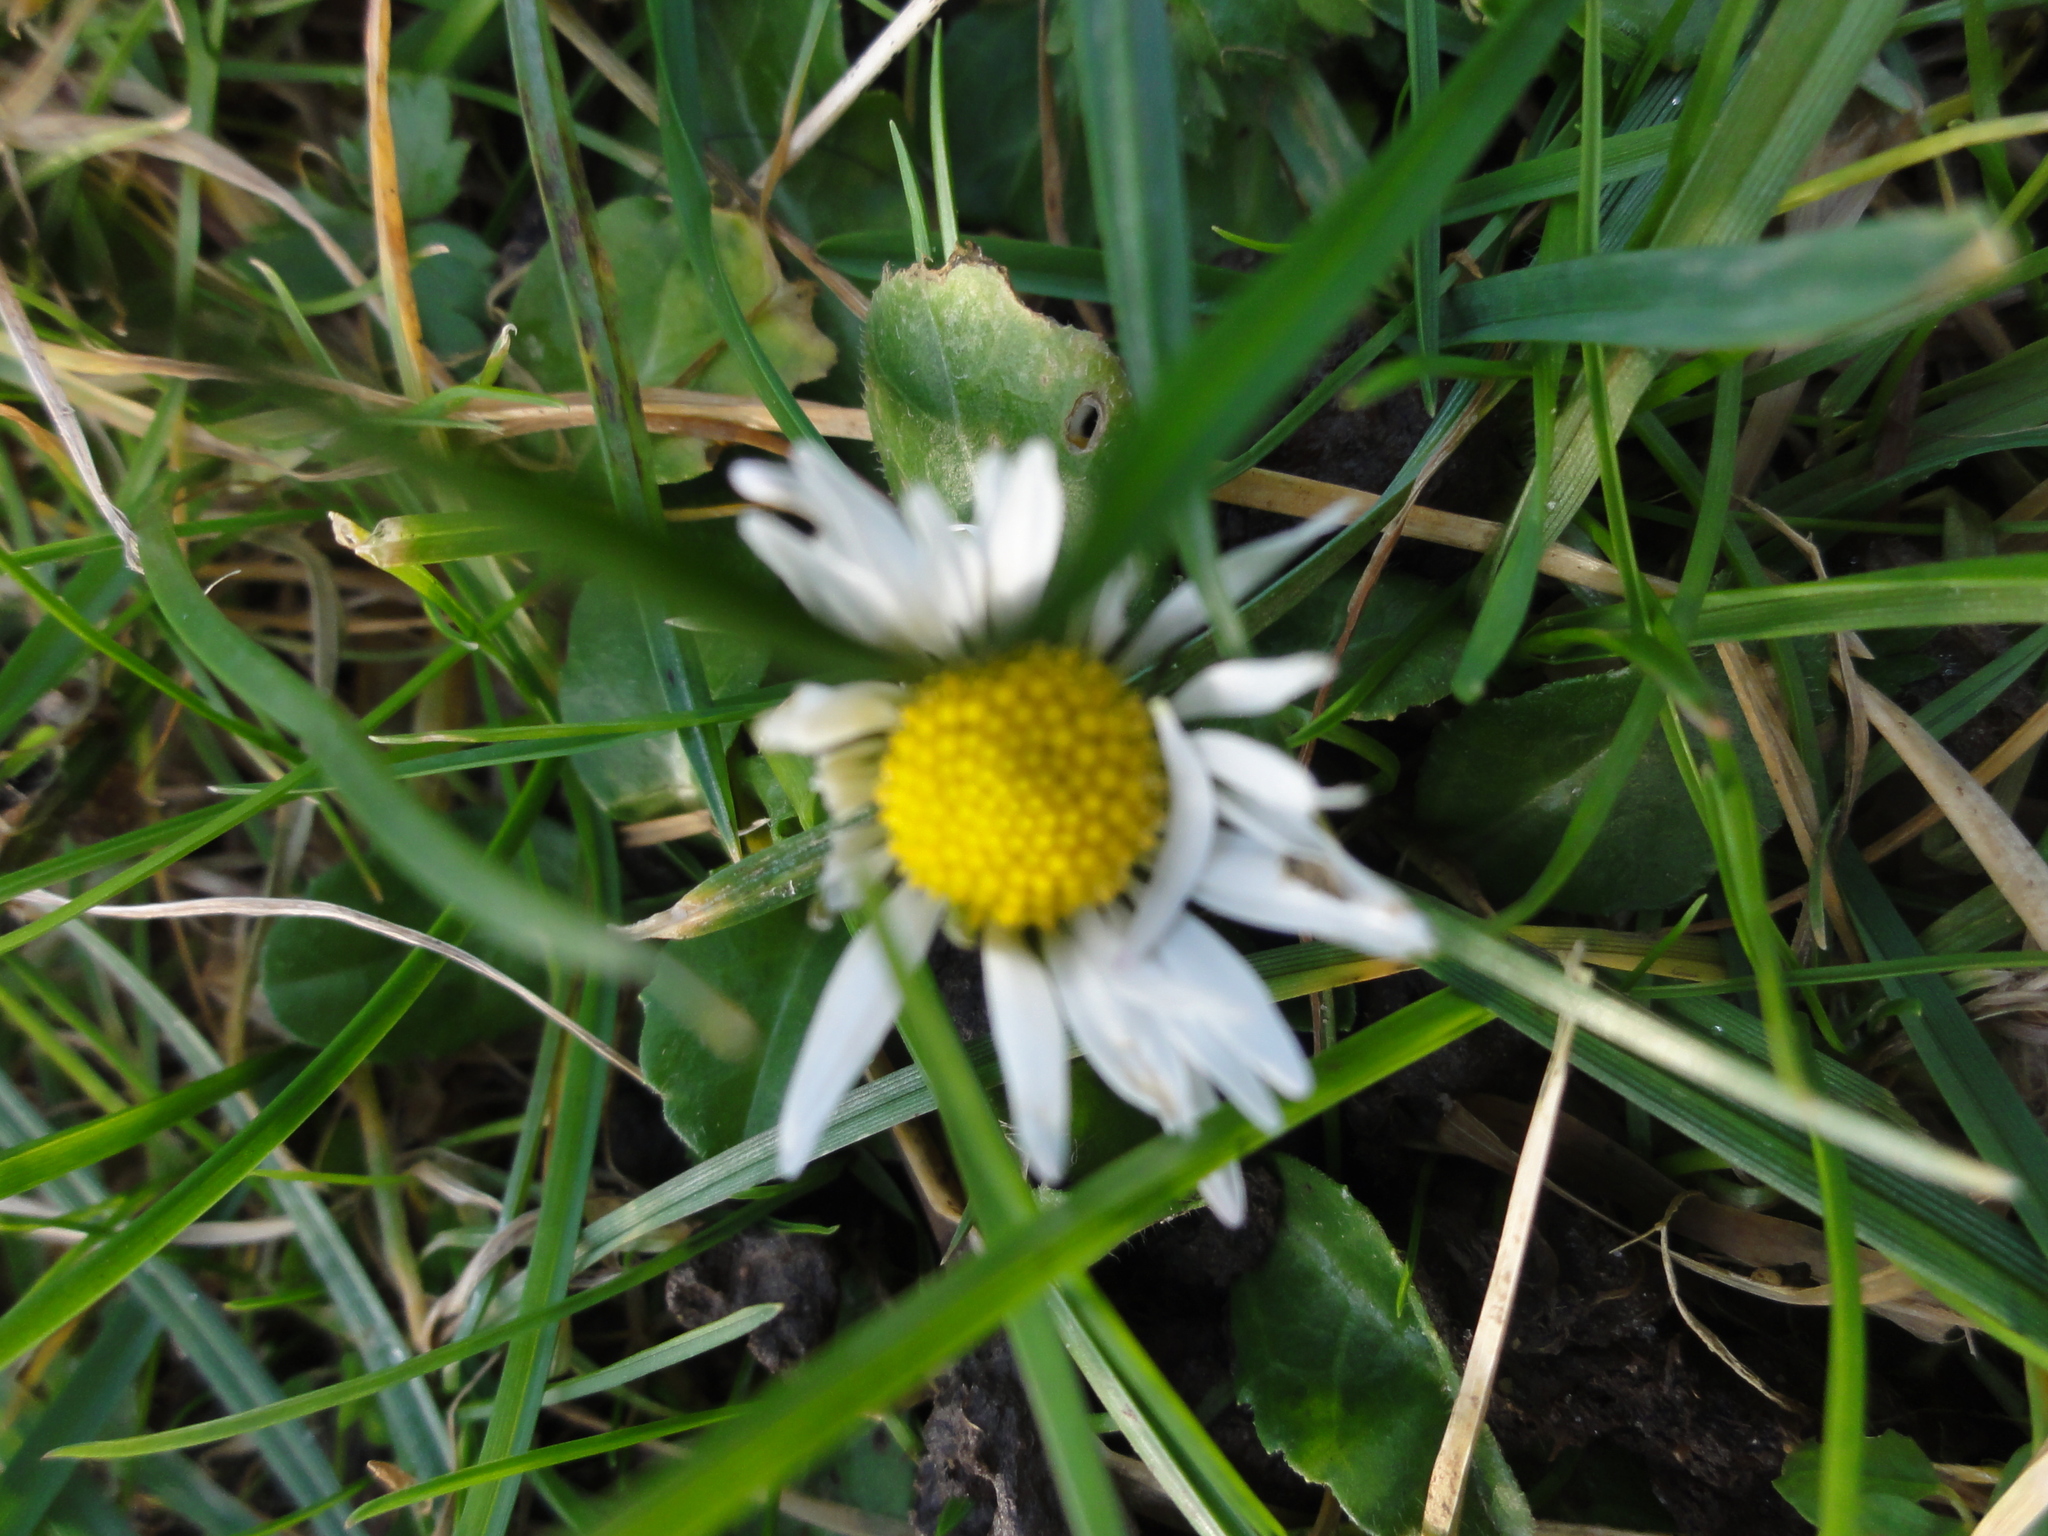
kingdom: Plantae
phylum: Tracheophyta
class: Magnoliopsida
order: Asterales
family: Asteraceae
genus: Bellis
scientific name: Bellis perennis
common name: Lawndaisy
